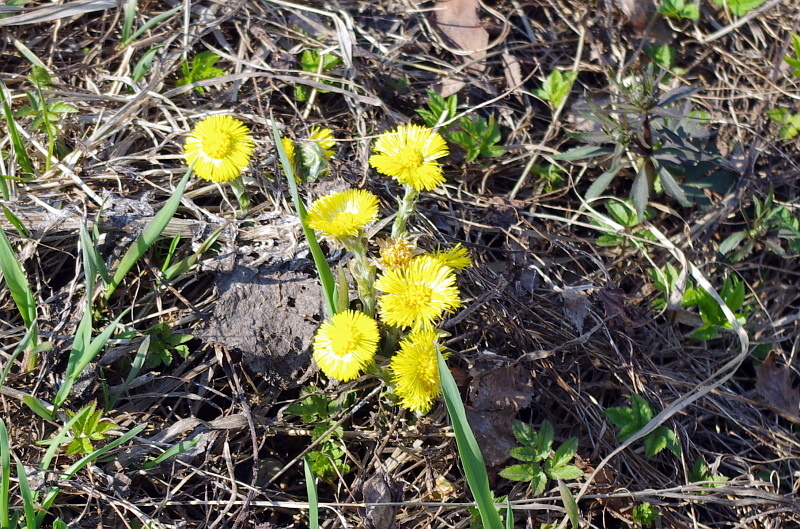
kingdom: Plantae
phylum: Tracheophyta
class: Magnoliopsida
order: Asterales
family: Asteraceae
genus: Tussilago
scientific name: Tussilago farfara
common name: Coltsfoot
